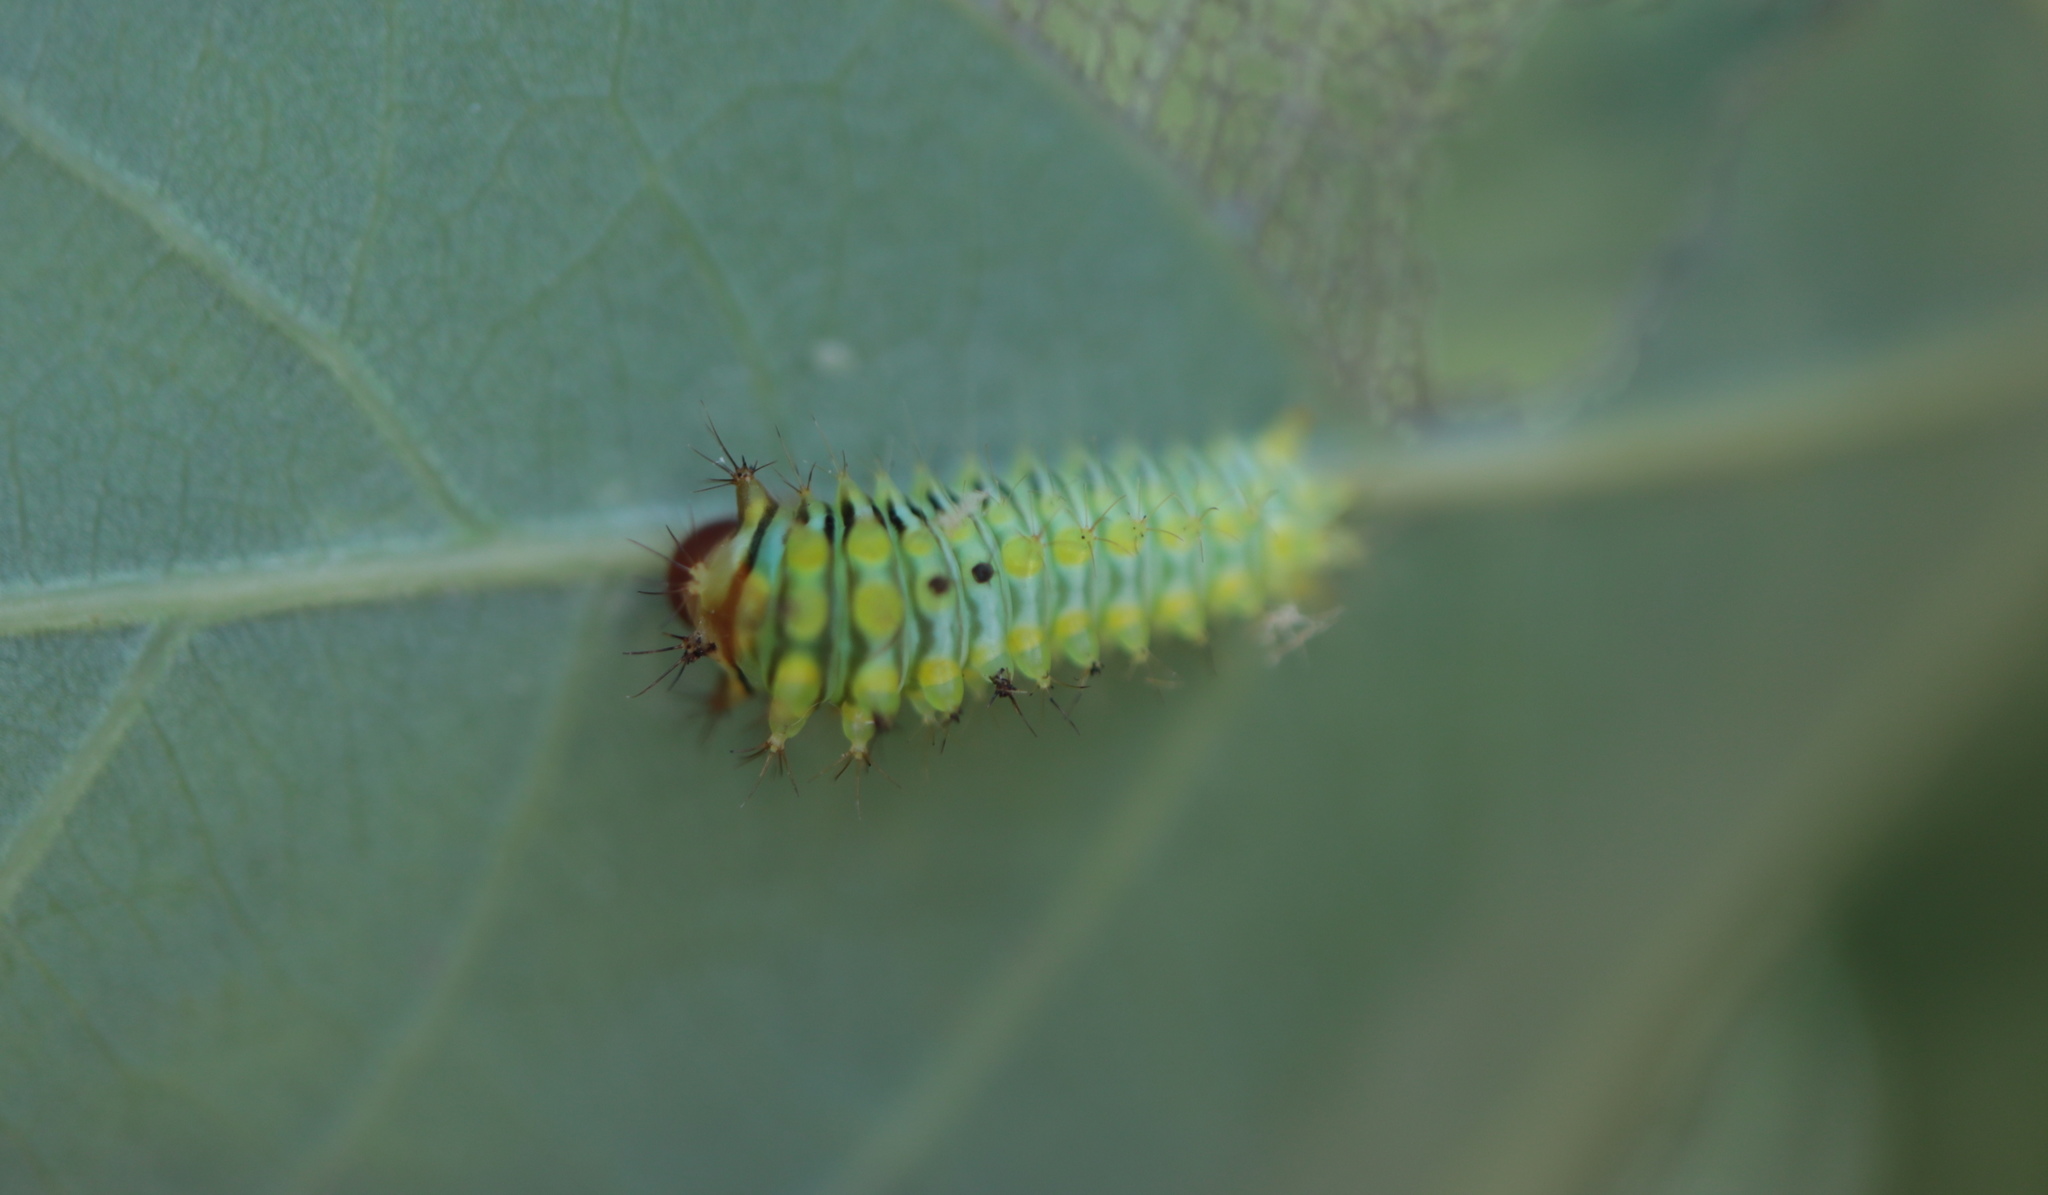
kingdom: Animalia
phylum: Arthropoda
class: Insecta
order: Lepidoptera
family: Saturniidae
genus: Antheraea
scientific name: Antheraea polyphemus
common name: Polyphemus moth
